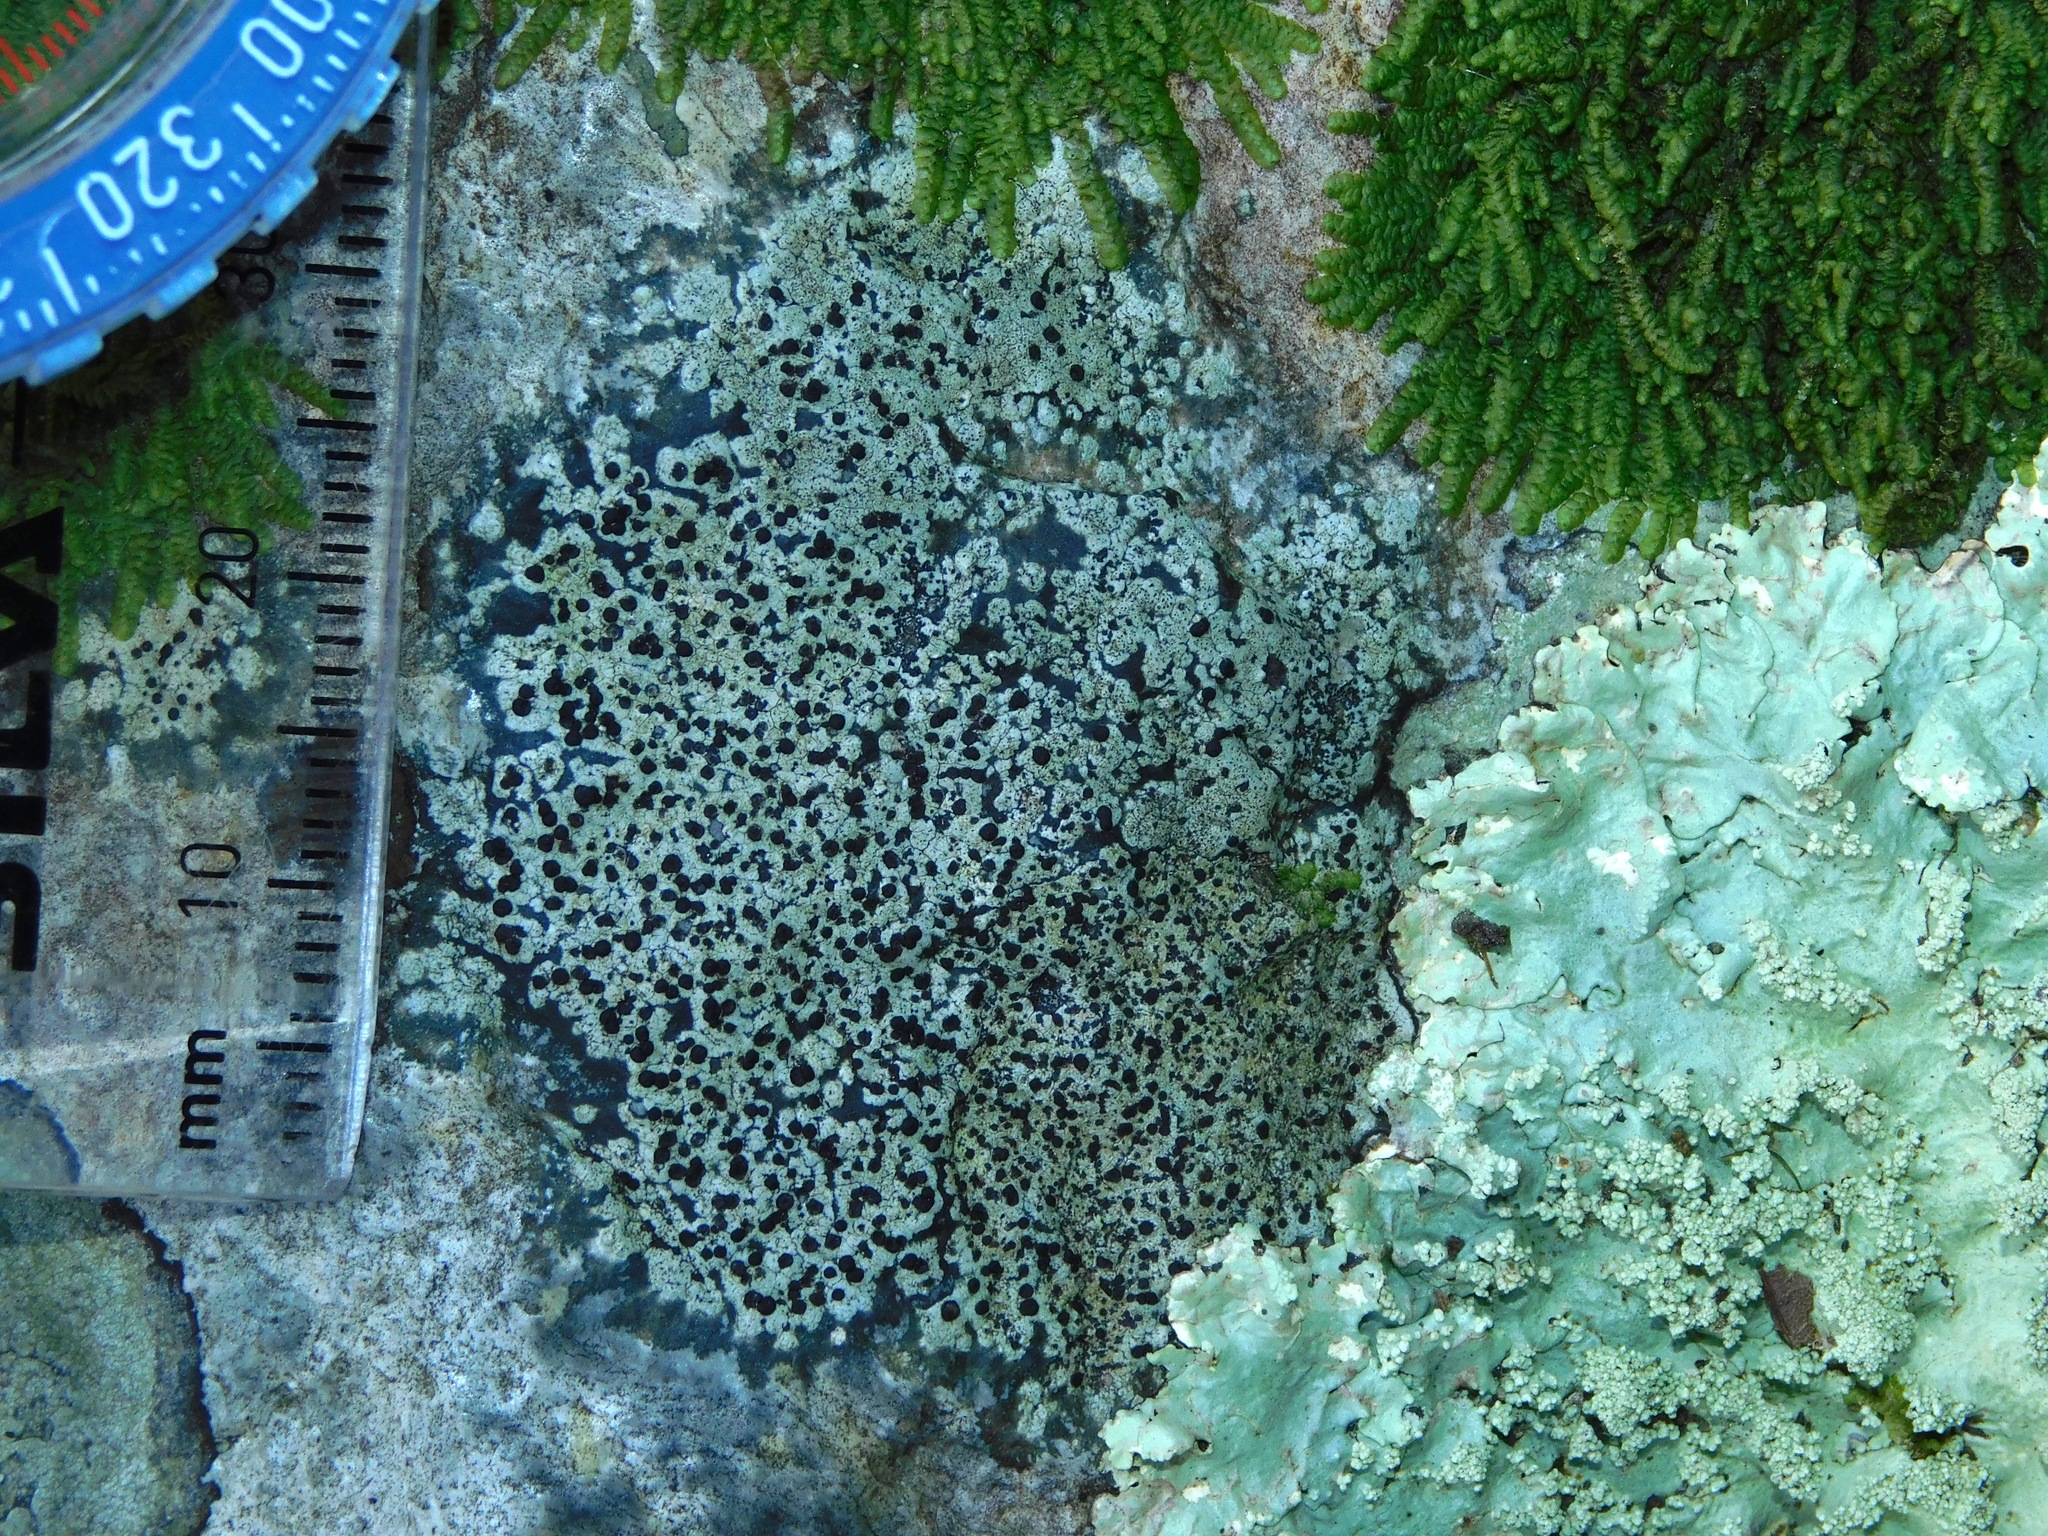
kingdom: Fungi
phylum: Ascomycota
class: Lecanoromycetes
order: Caliciales
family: Caliciaceae
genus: Buellia
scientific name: Buellia spuria
